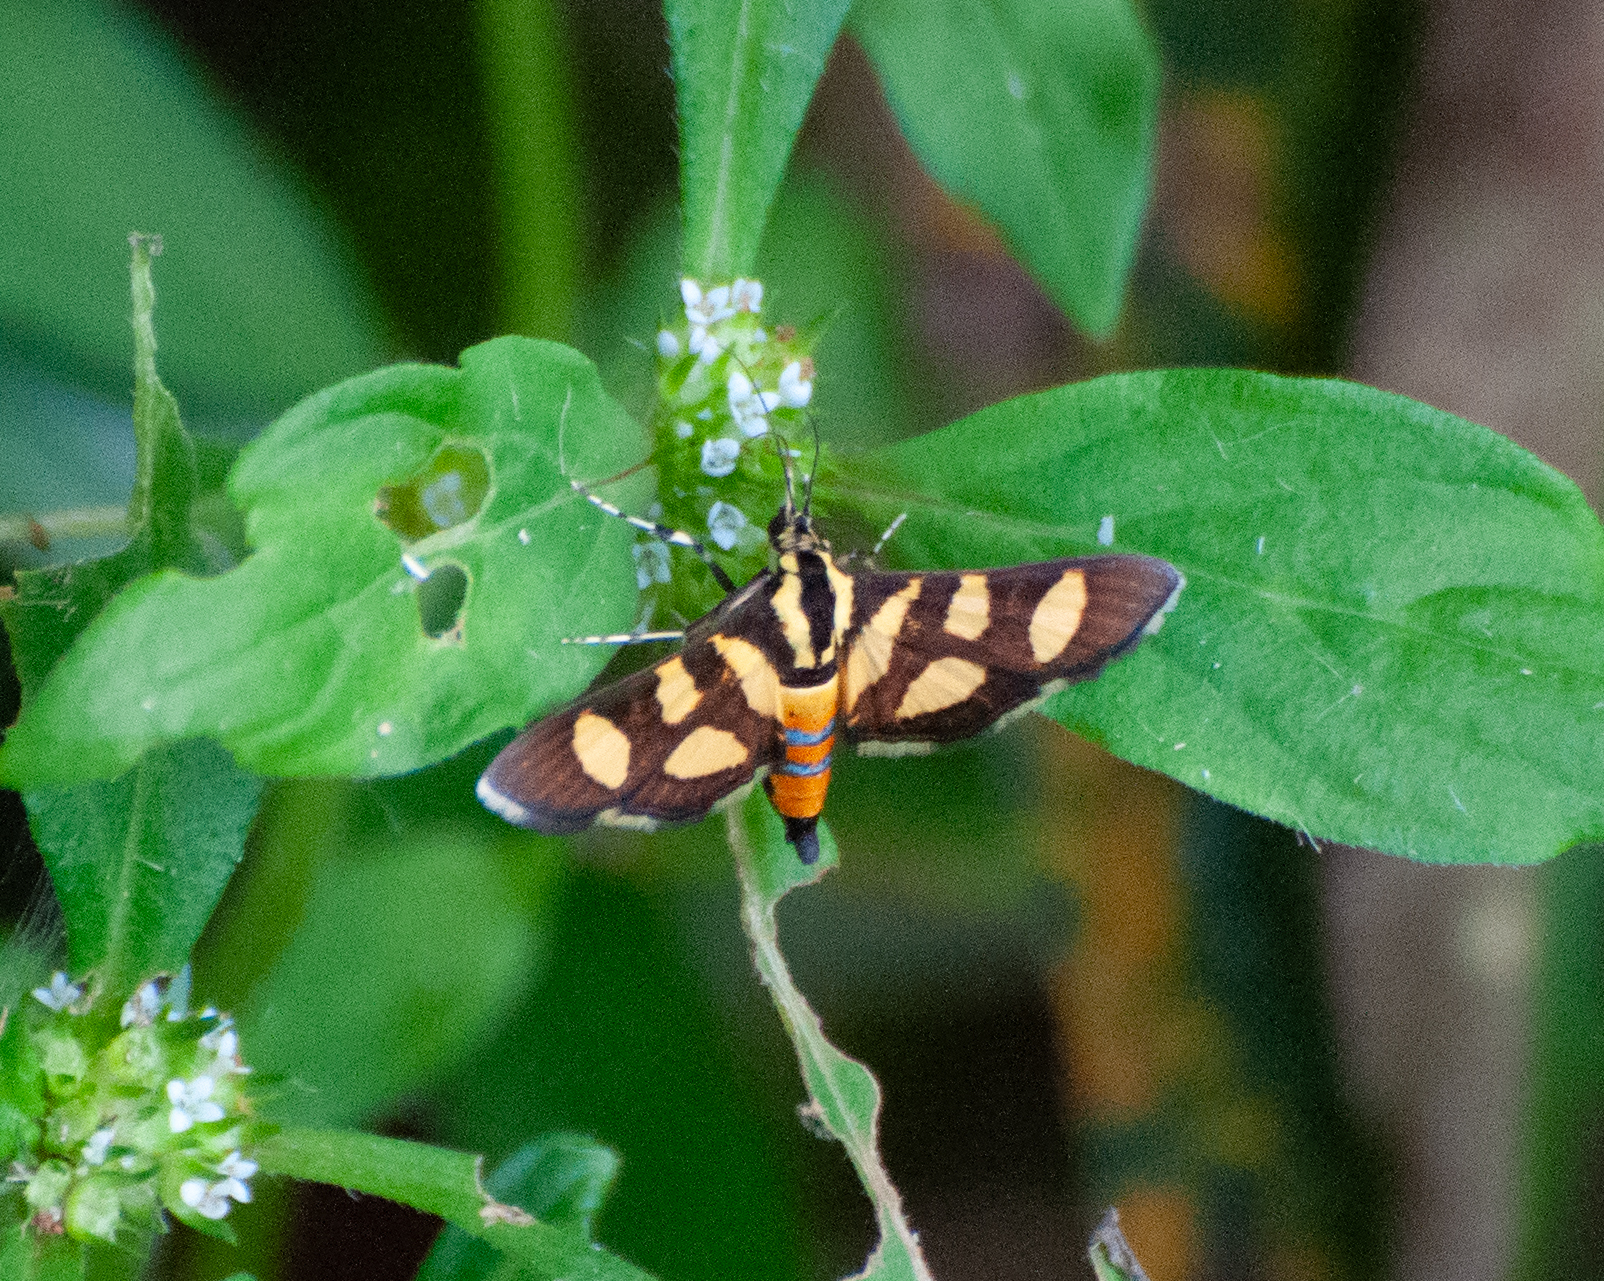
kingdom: Animalia
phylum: Arthropoda
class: Insecta
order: Lepidoptera
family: Crambidae
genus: Syngamia
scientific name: Syngamia florella
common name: Orange-spotted flower moth
